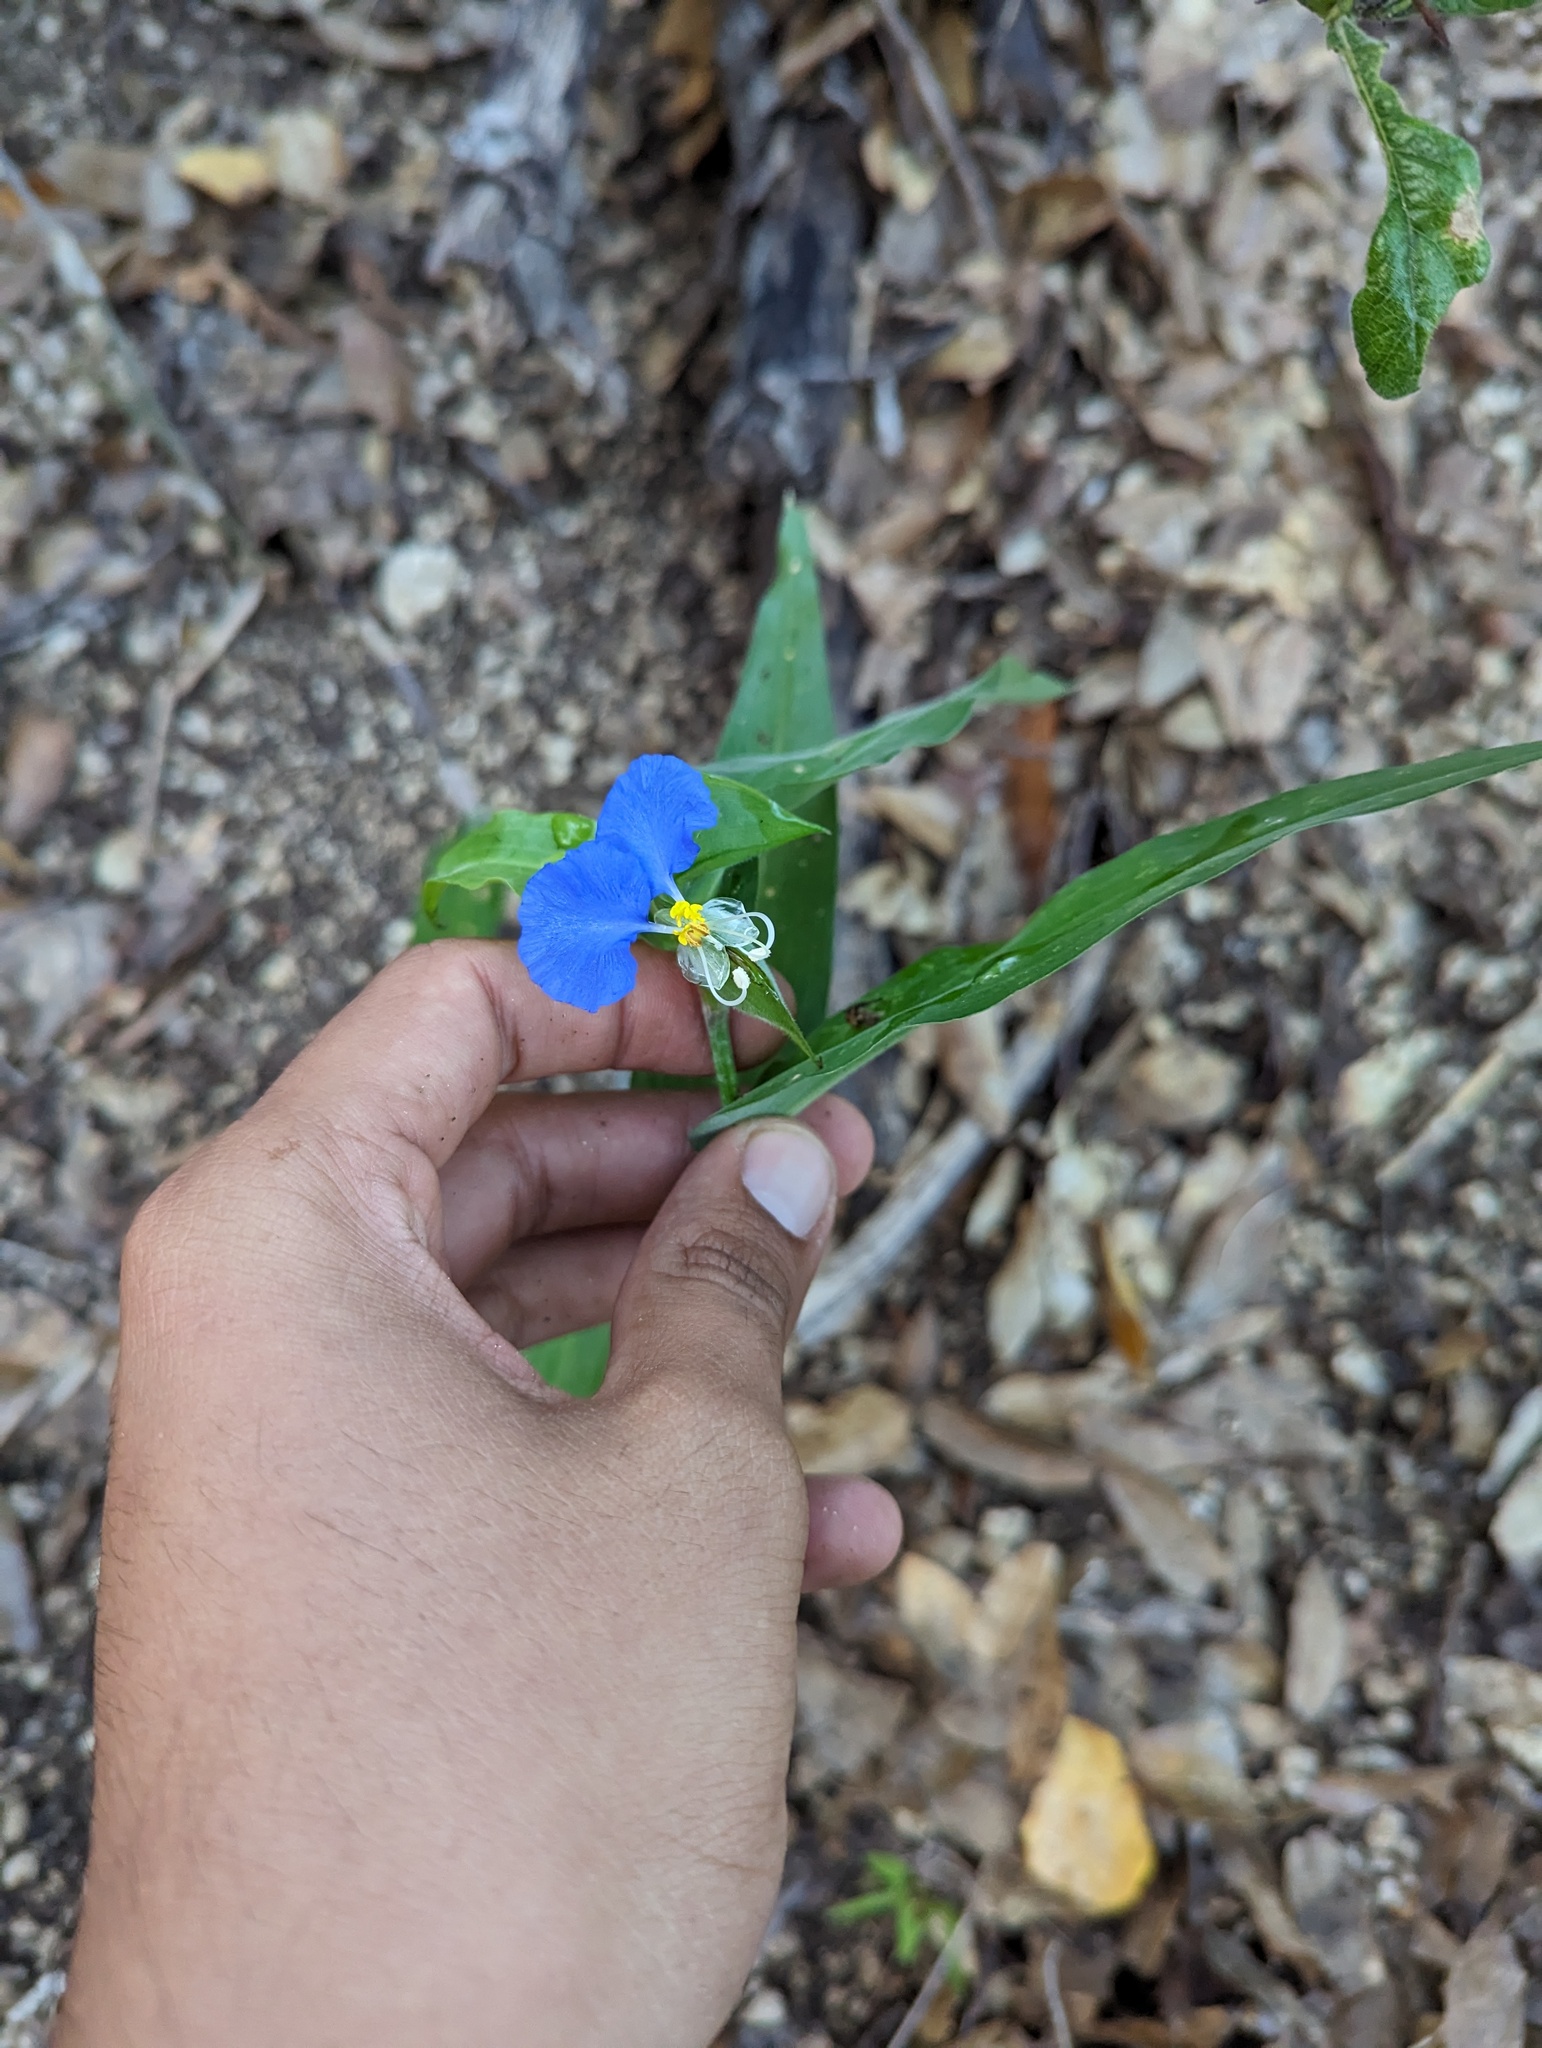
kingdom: Plantae
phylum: Tracheophyta
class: Liliopsida
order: Commelinales
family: Commelinaceae
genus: Commelina
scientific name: Commelina erecta
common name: Blousel blommetjie
